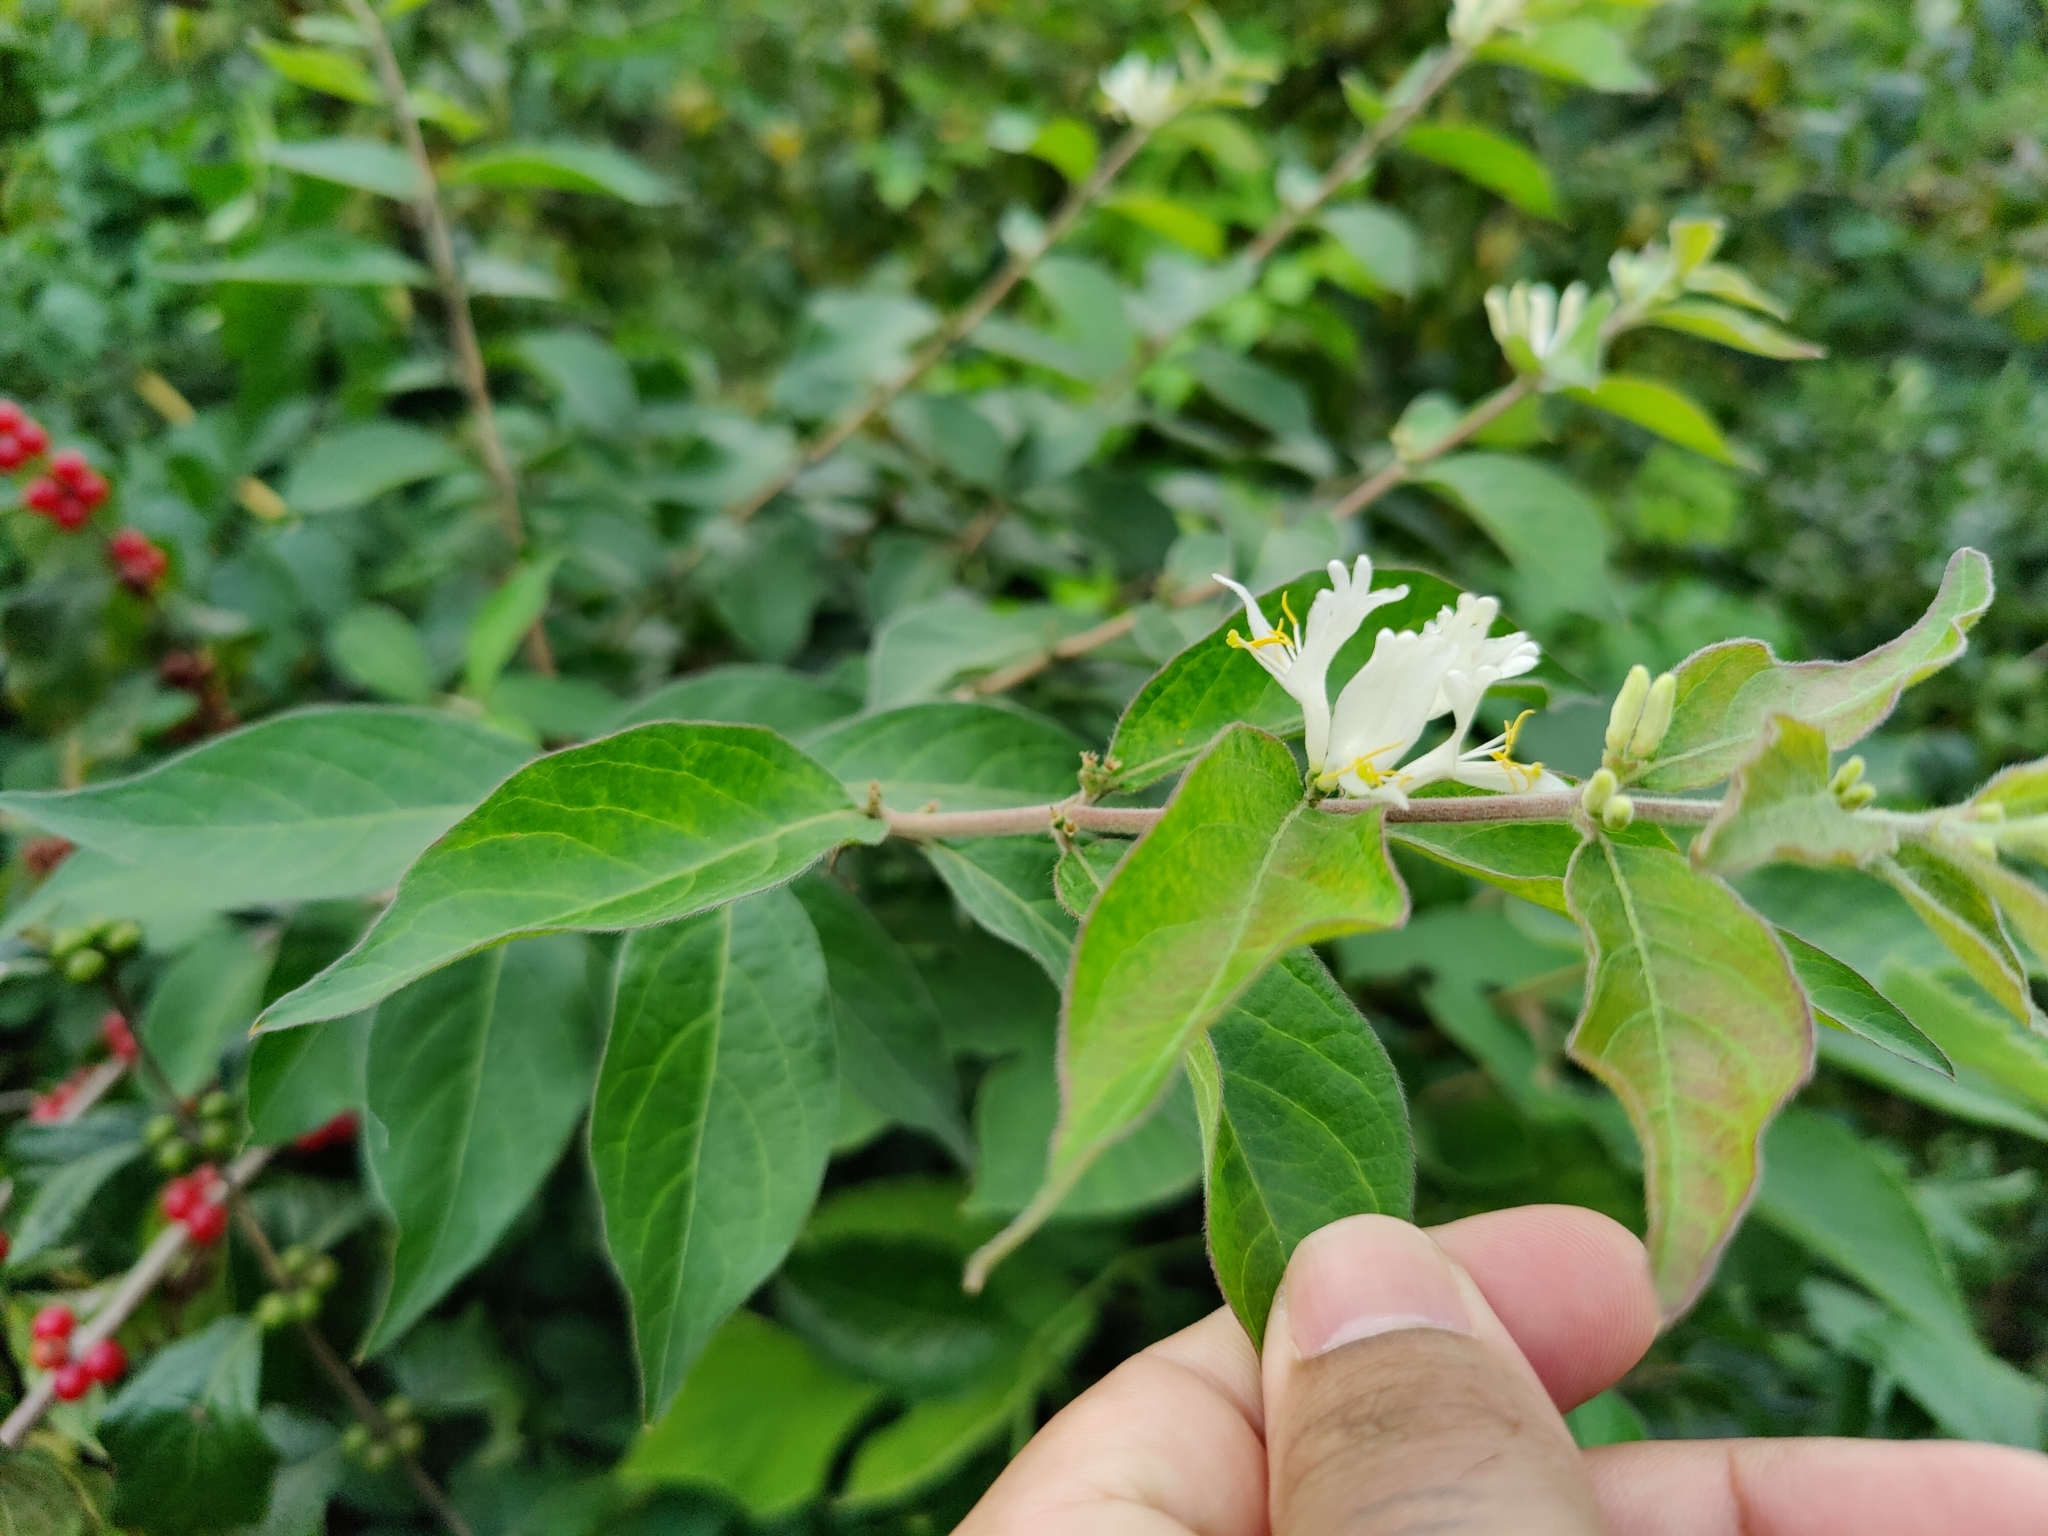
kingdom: Plantae
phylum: Tracheophyta
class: Magnoliopsida
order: Dipsacales
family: Caprifoliaceae
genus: Lonicera
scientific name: Lonicera maackii
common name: Amur honeysuckle
